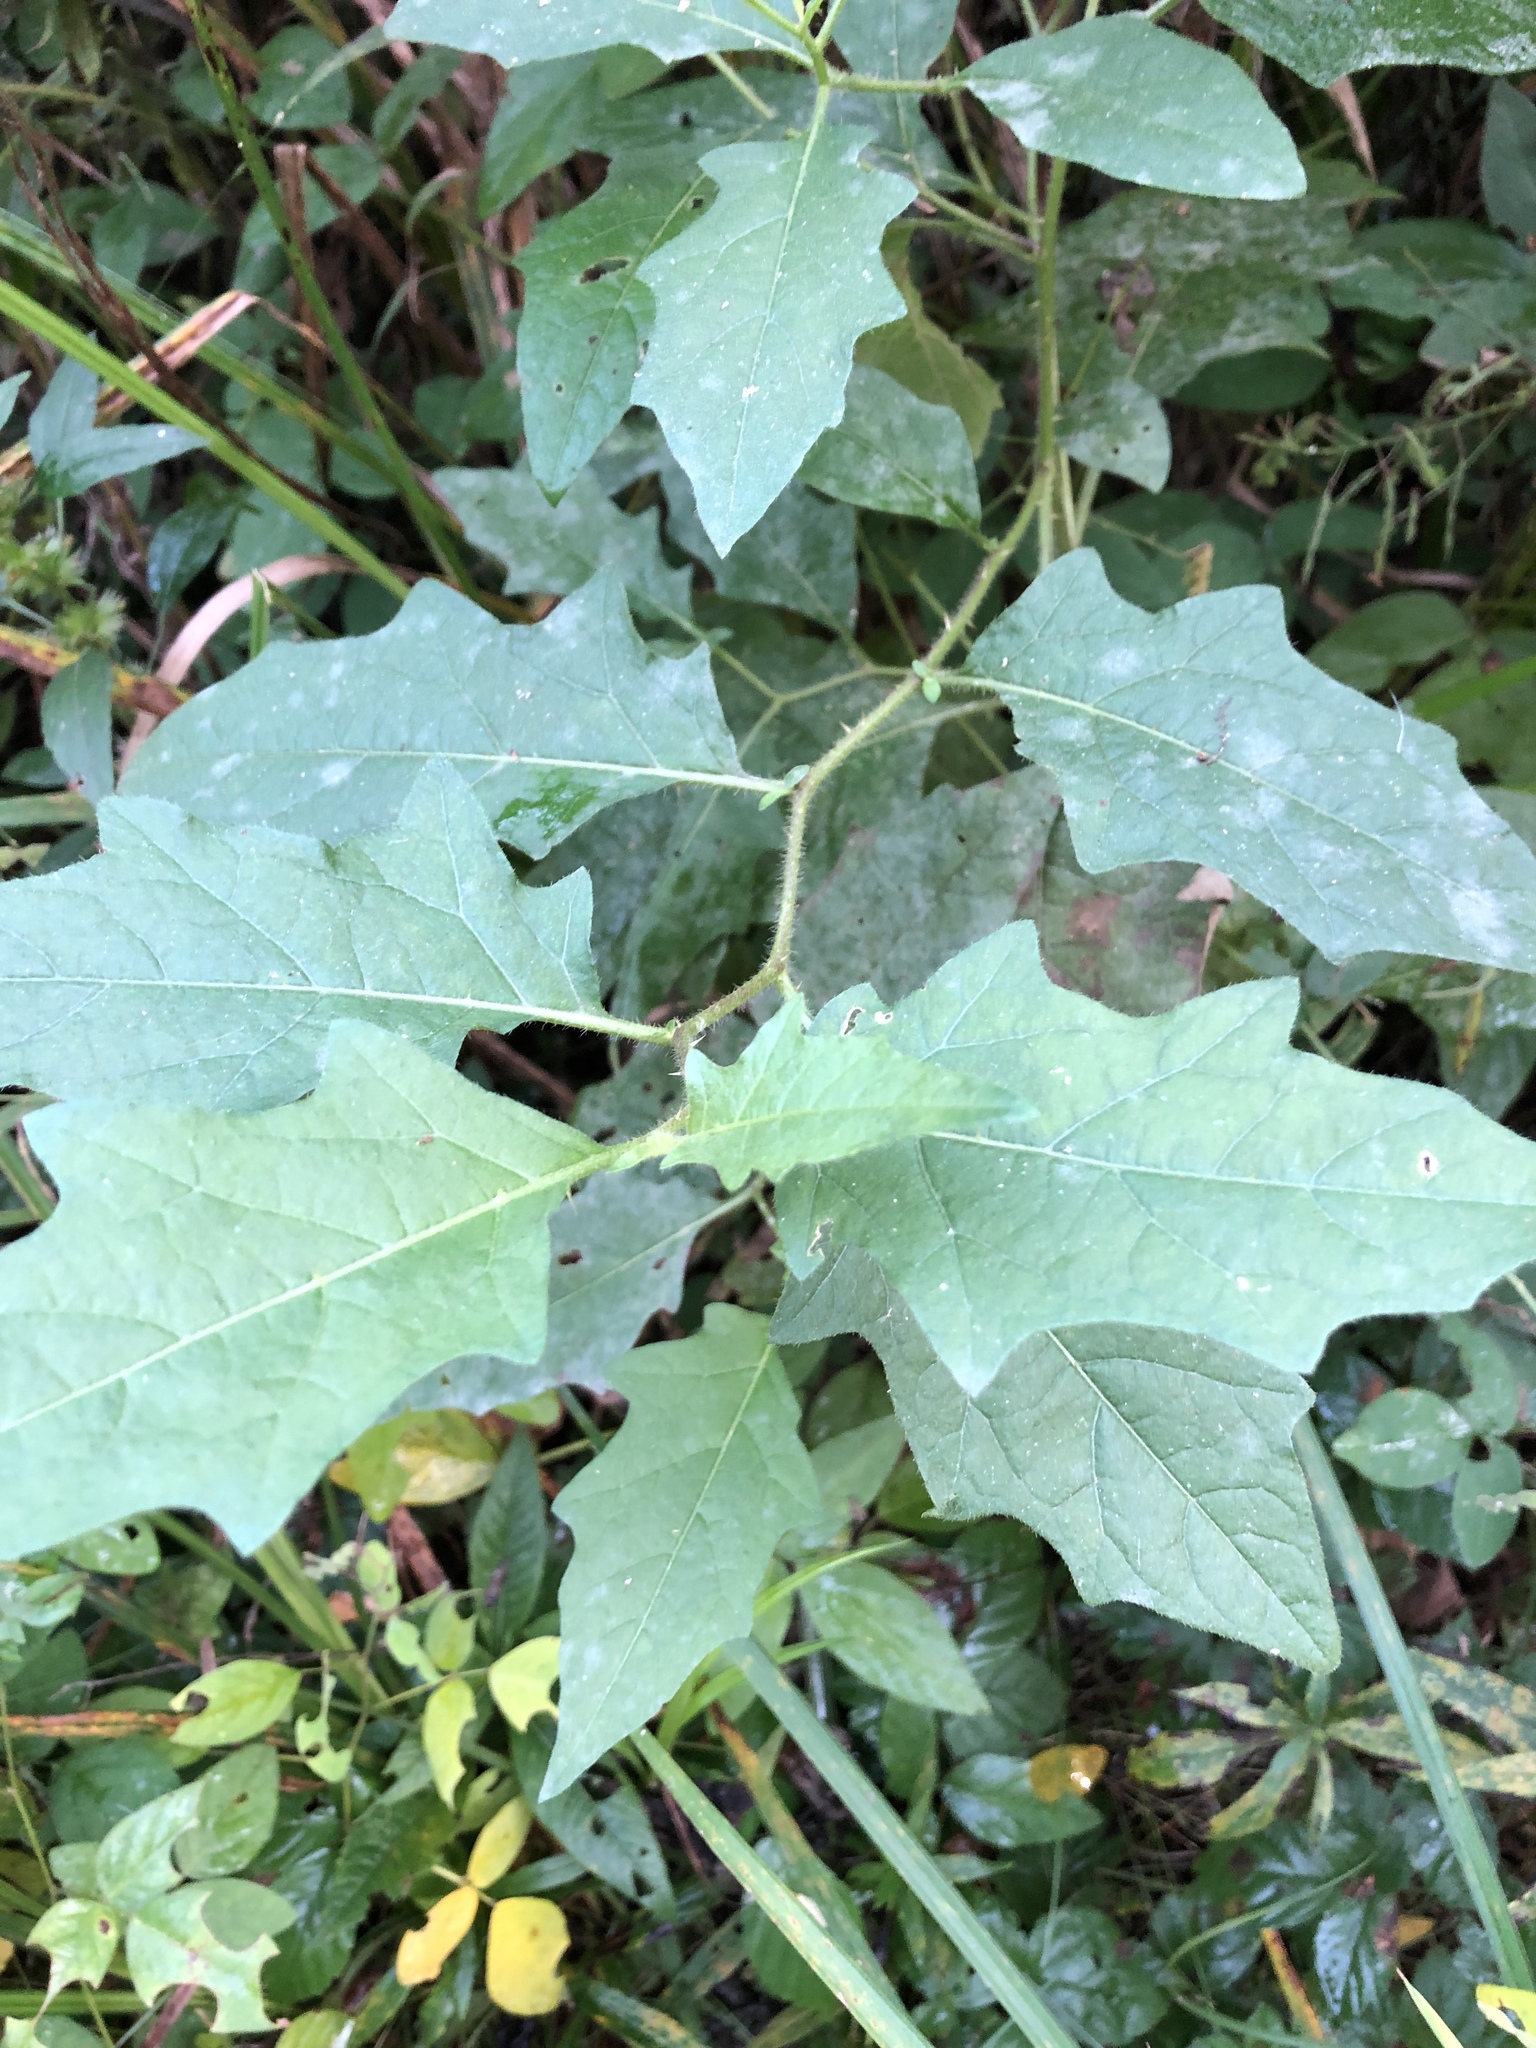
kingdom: Plantae
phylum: Tracheophyta
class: Magnoliopsida
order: Solanales
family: Solanaceae
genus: Solanum
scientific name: Solanum carolinense
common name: Horse-nettle
